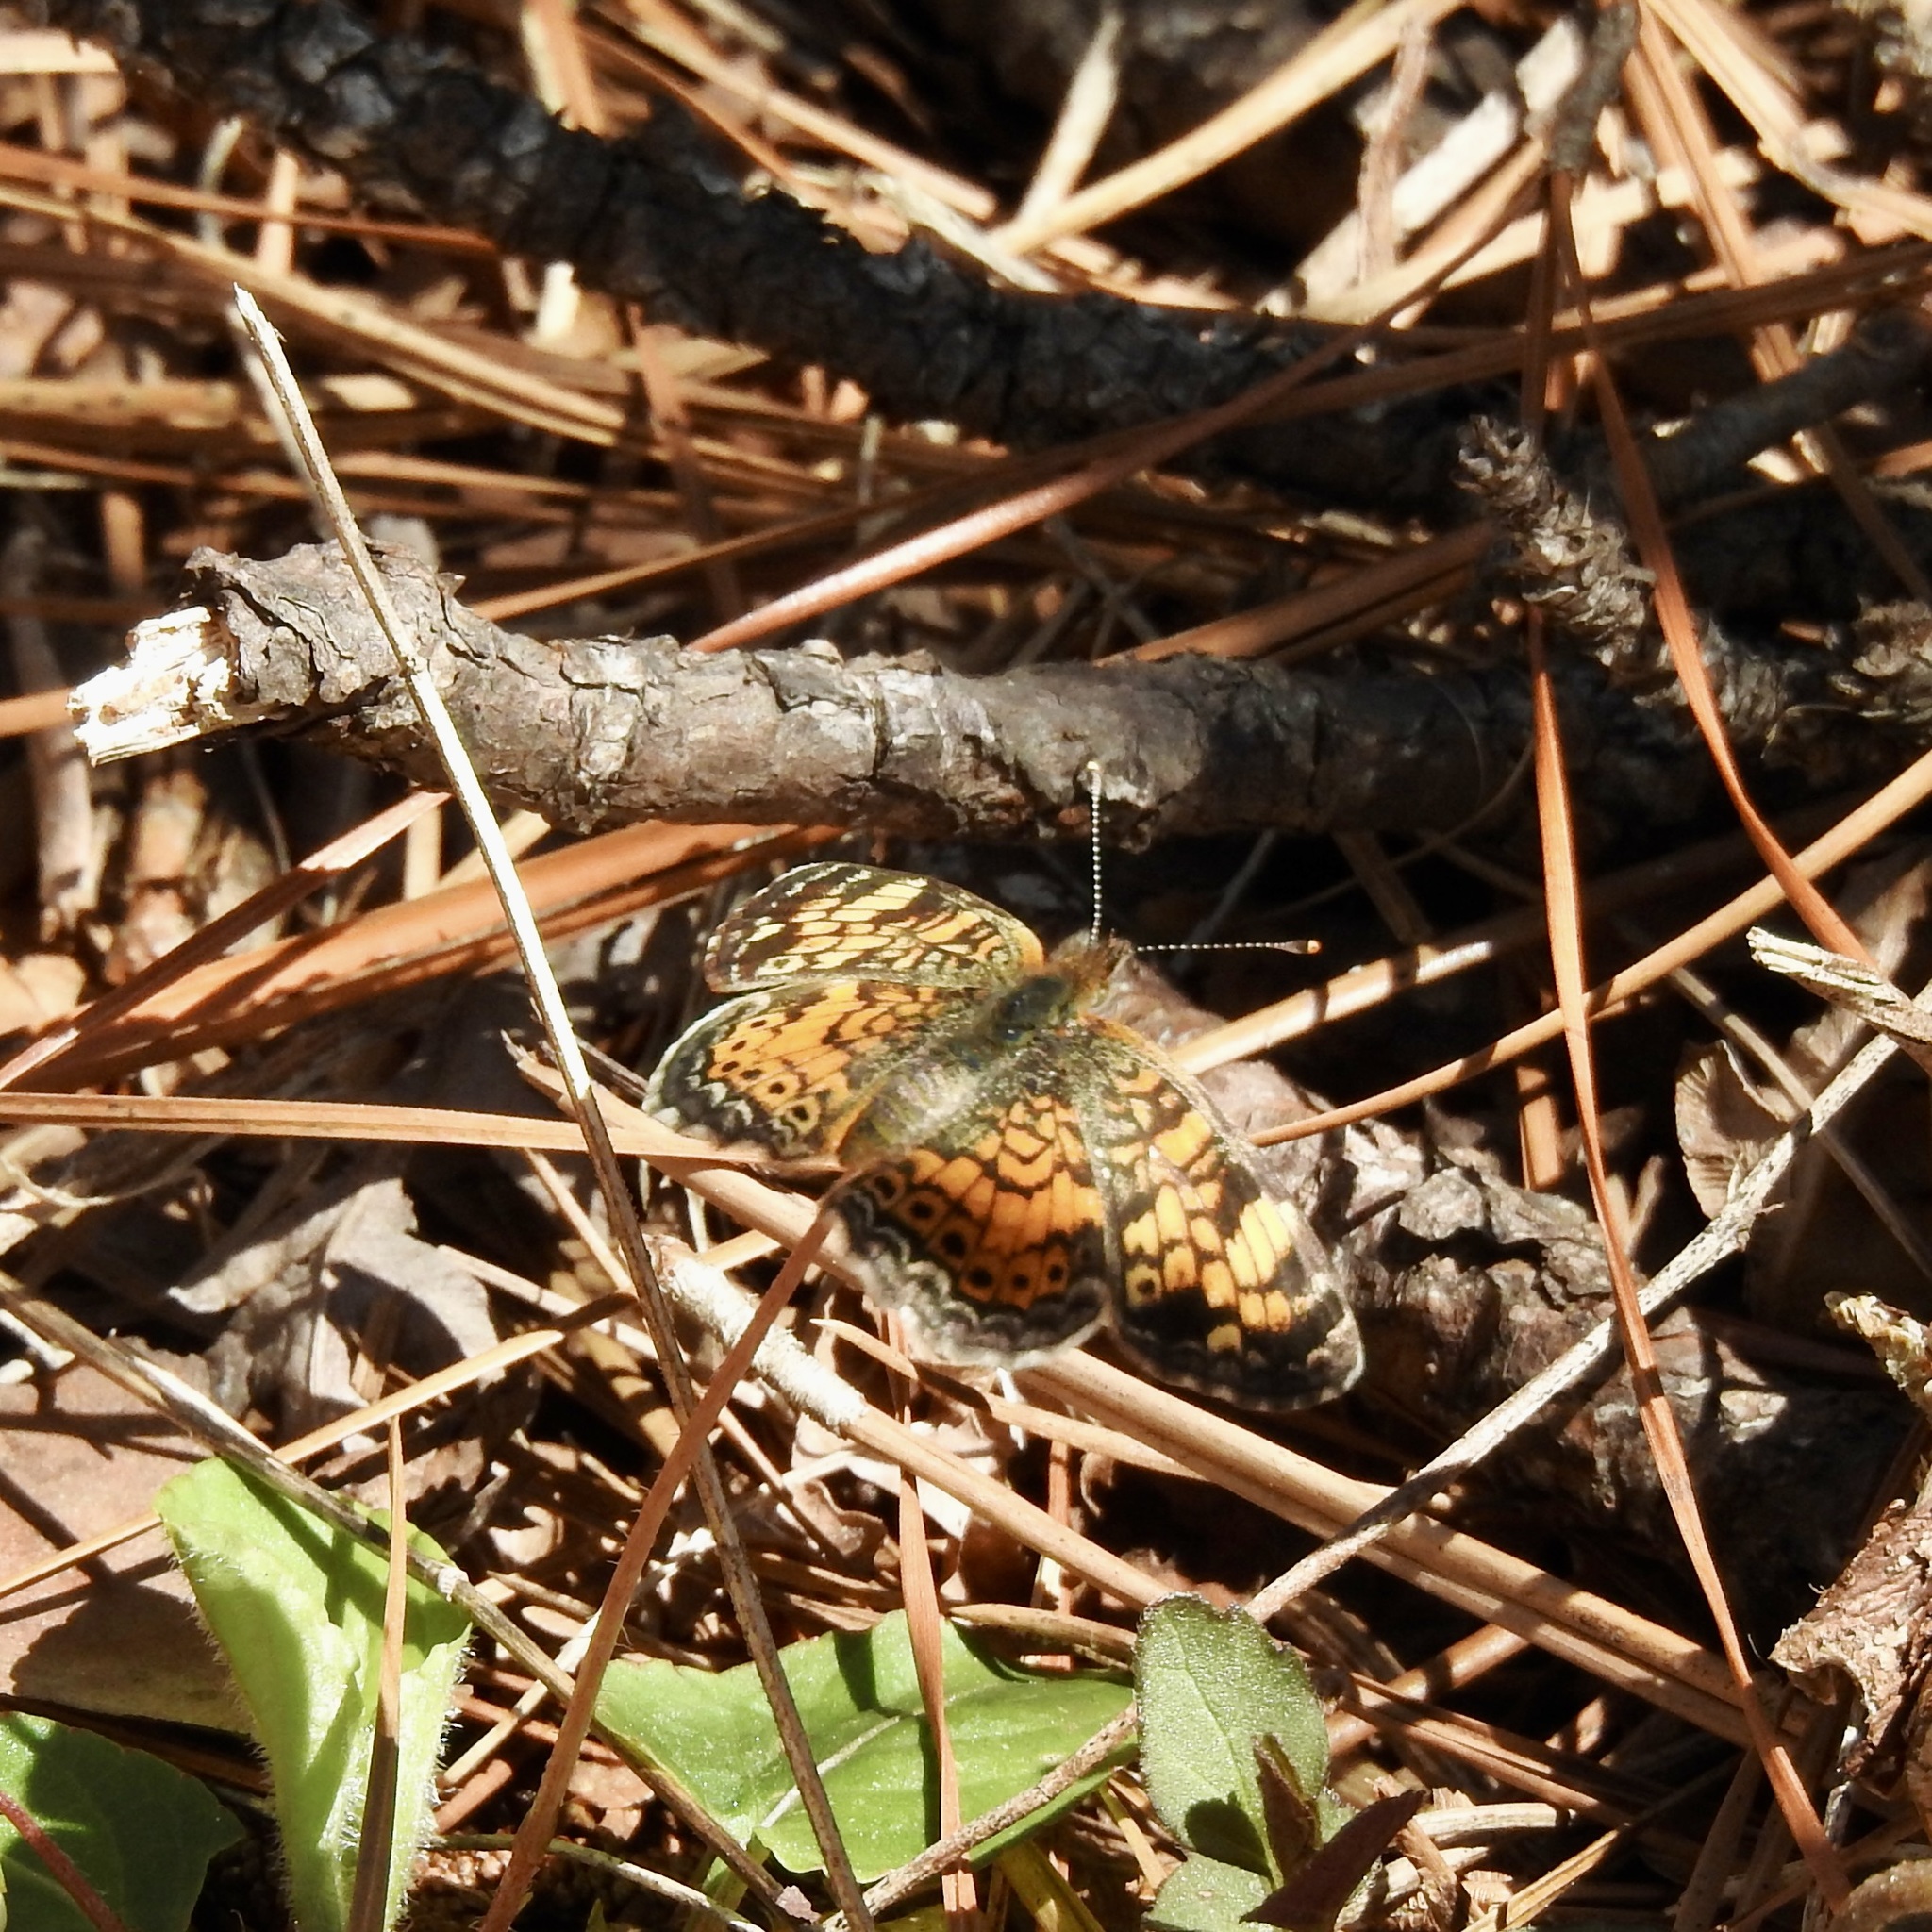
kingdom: Animalia
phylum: Arthropoda
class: Insecta
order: Lepidoptera
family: Nymphalidae
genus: Phyciodes
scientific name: Phyciodes tharos
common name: Pearl crescent
